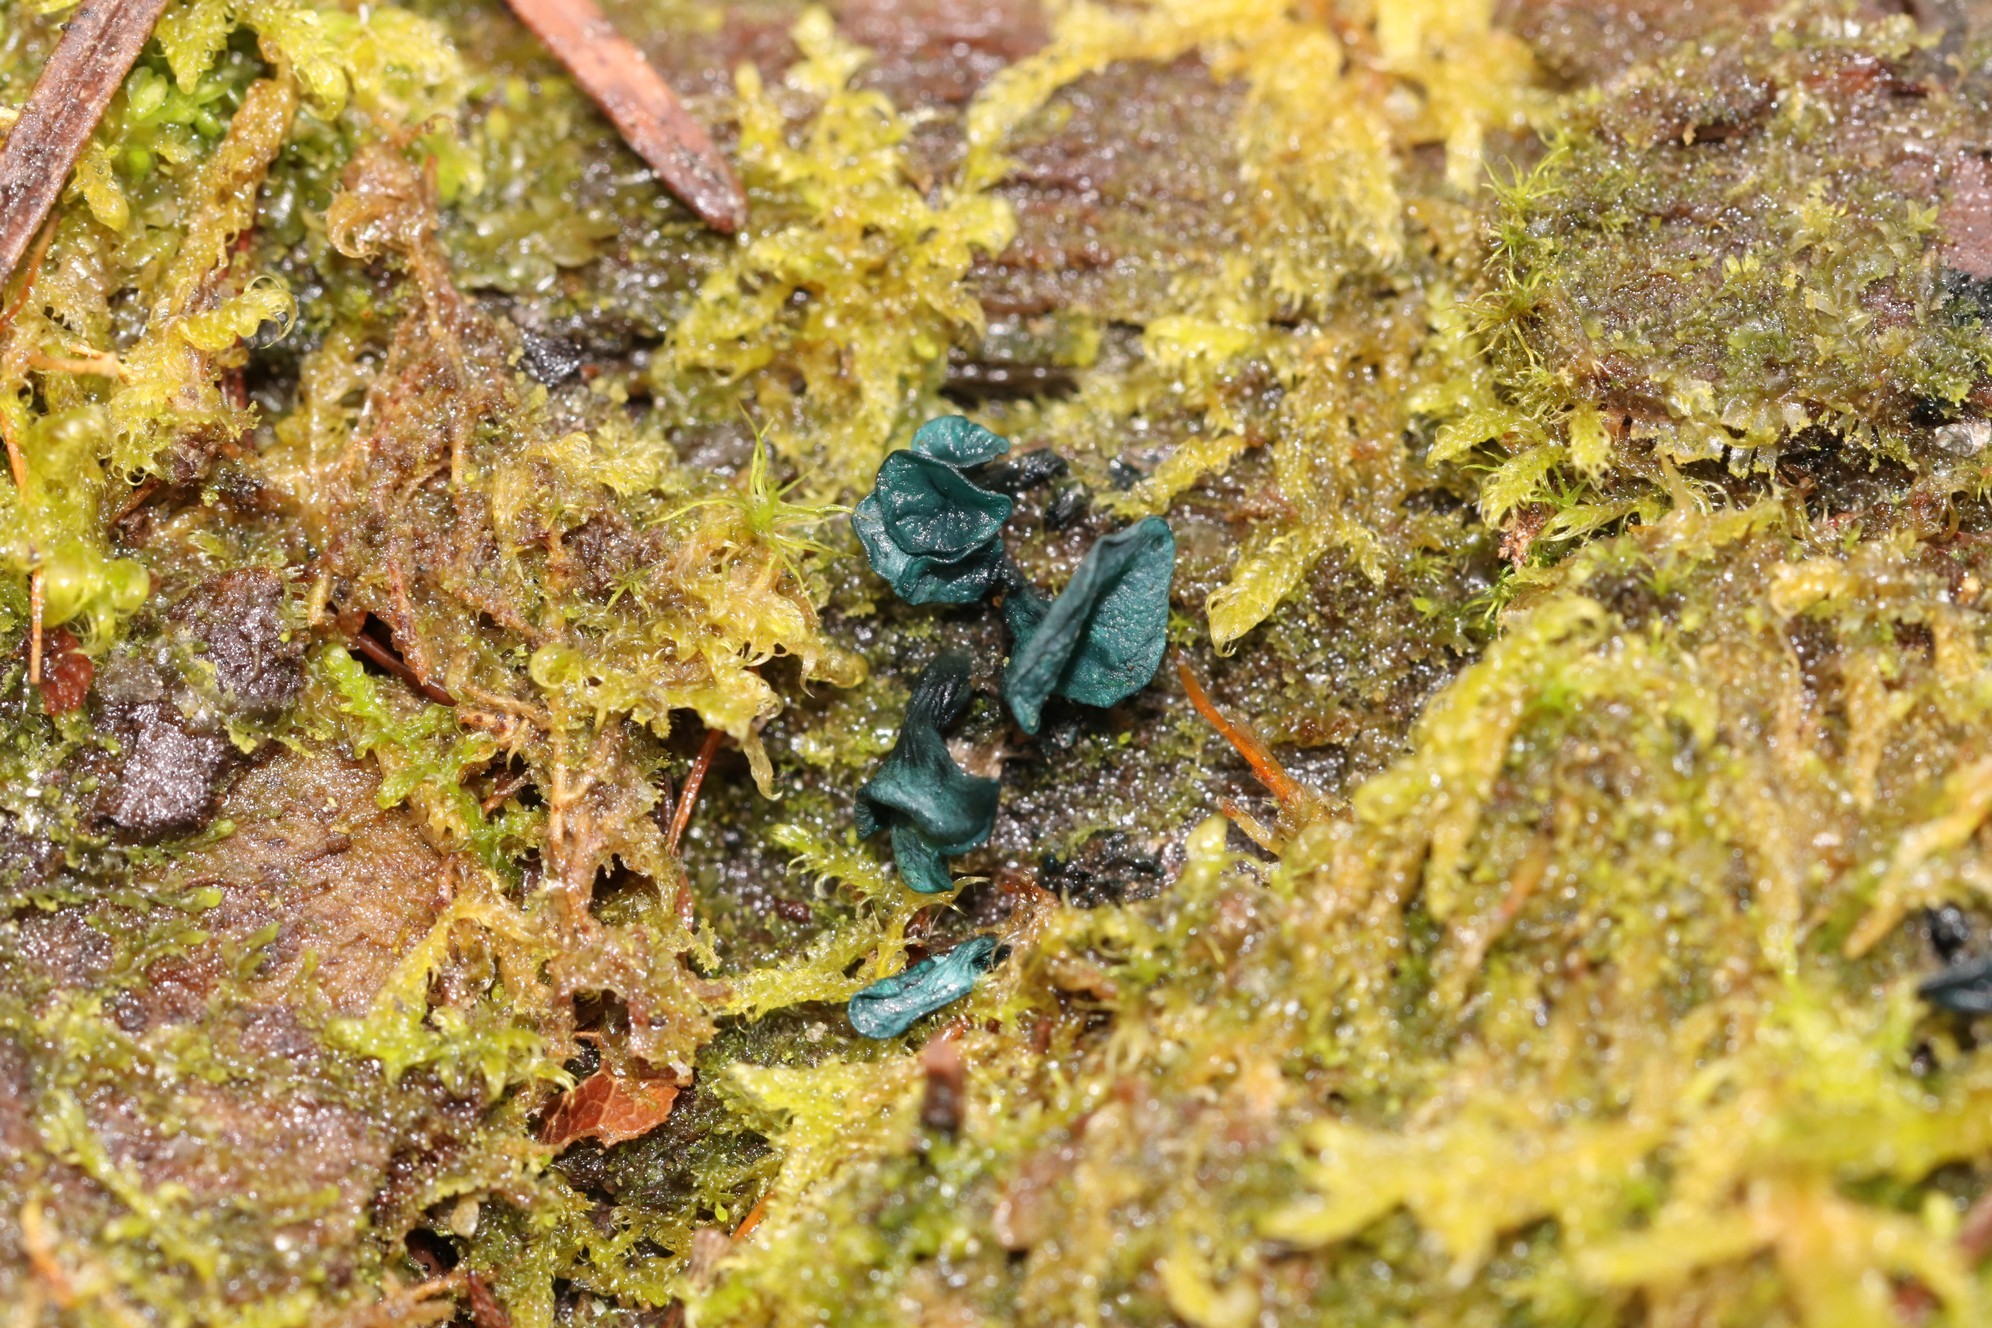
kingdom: Fungi
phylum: Ascomycota
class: Leotiomycetes
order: Helotiales
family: Chlorociboriaceae
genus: Chlorociboria
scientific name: Chlorociboria aeruginascens
